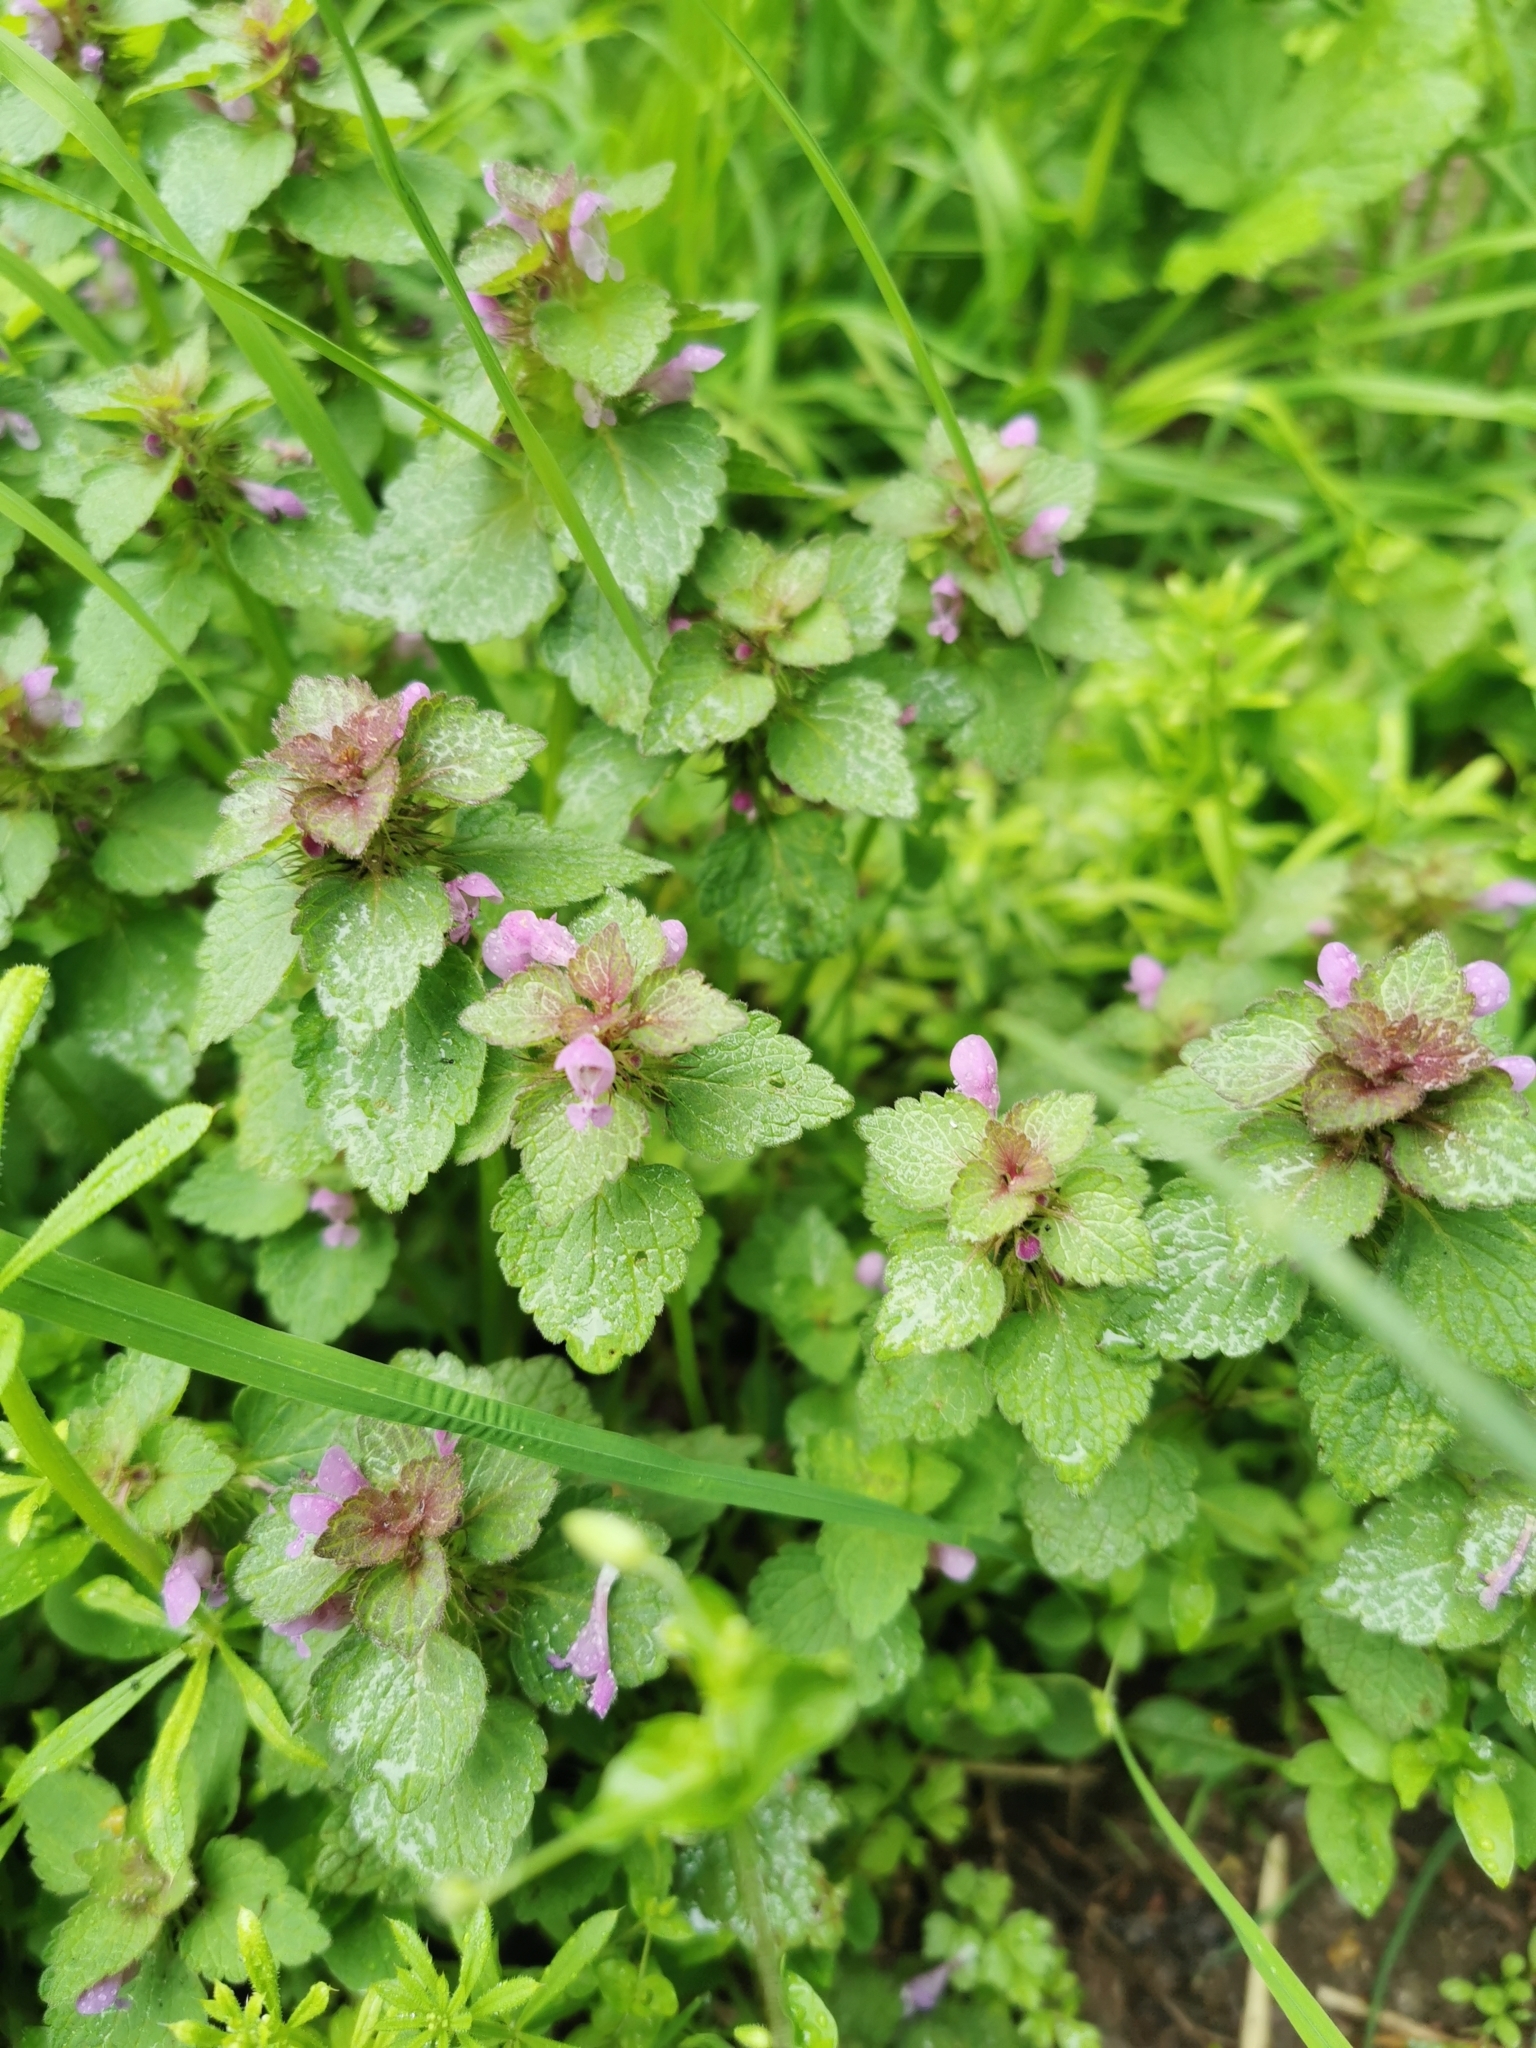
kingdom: Plantae
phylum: Tracheophyta
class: Magnoliopsida
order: Lamiales
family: Lamiaceae
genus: Lamium
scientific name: Lamium purpureum
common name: Red dead-nettle
